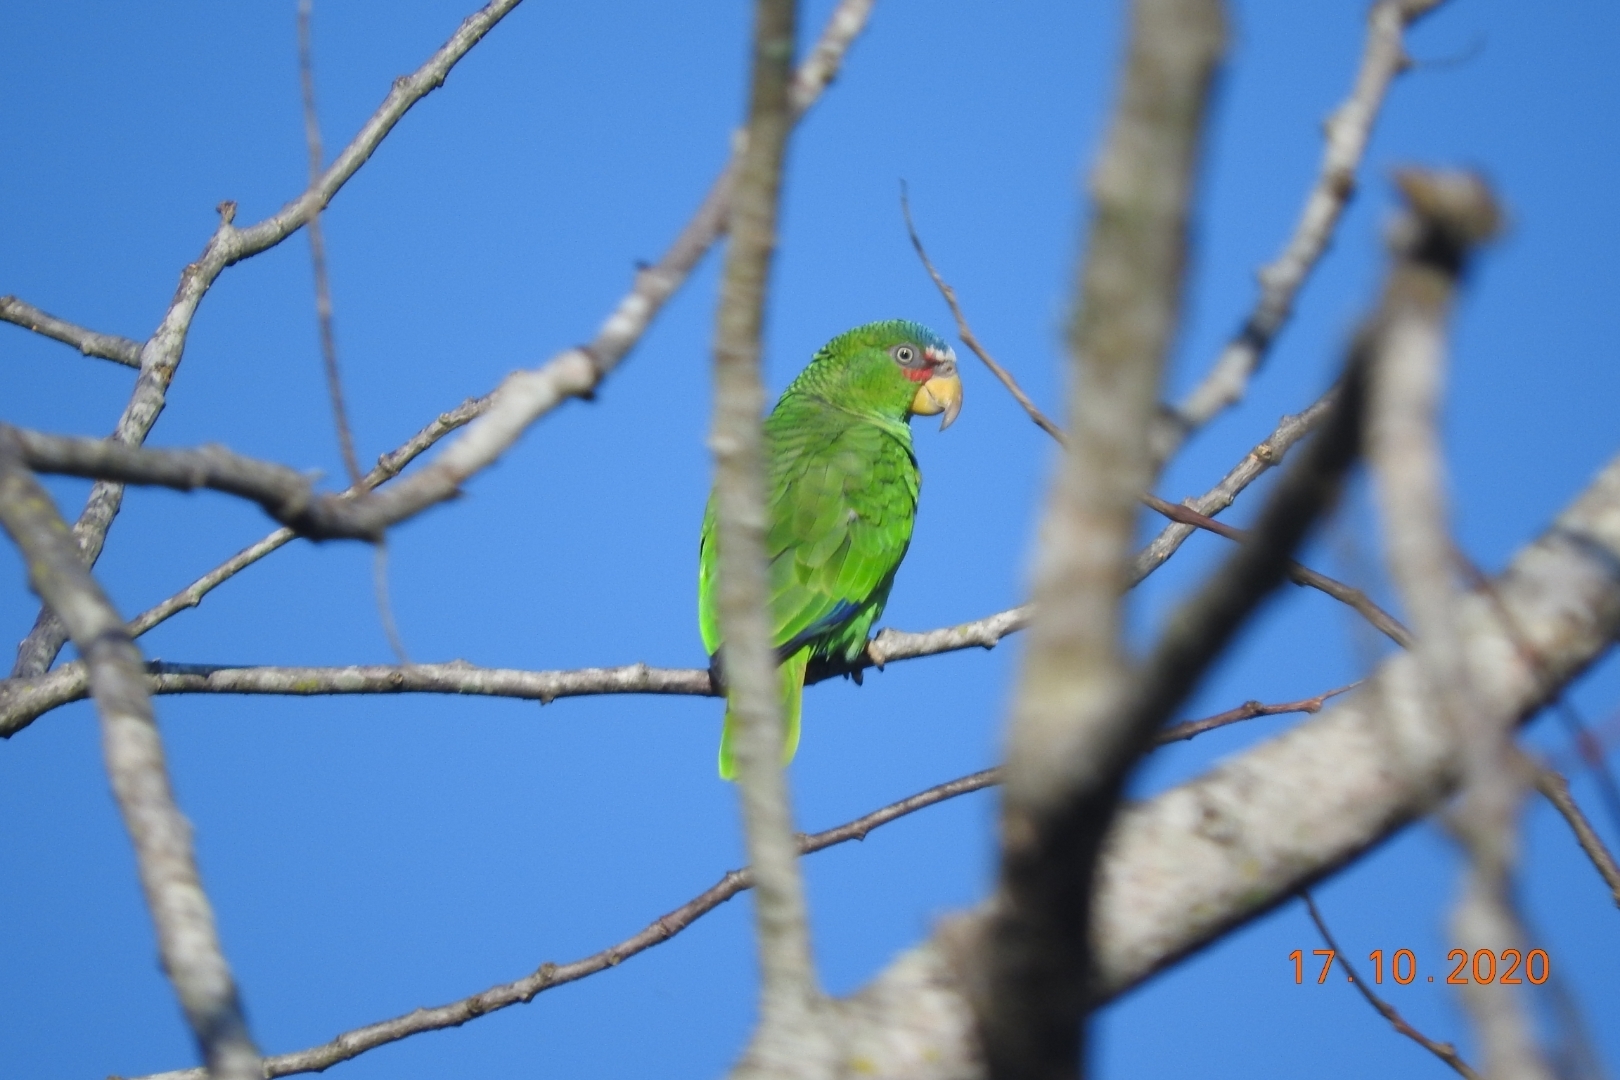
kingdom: Animalia
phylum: Chordata
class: Aves
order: Psittaciformes
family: Psittacidae
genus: Amazona
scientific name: Amazona albifrons
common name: White-fronted amazon
